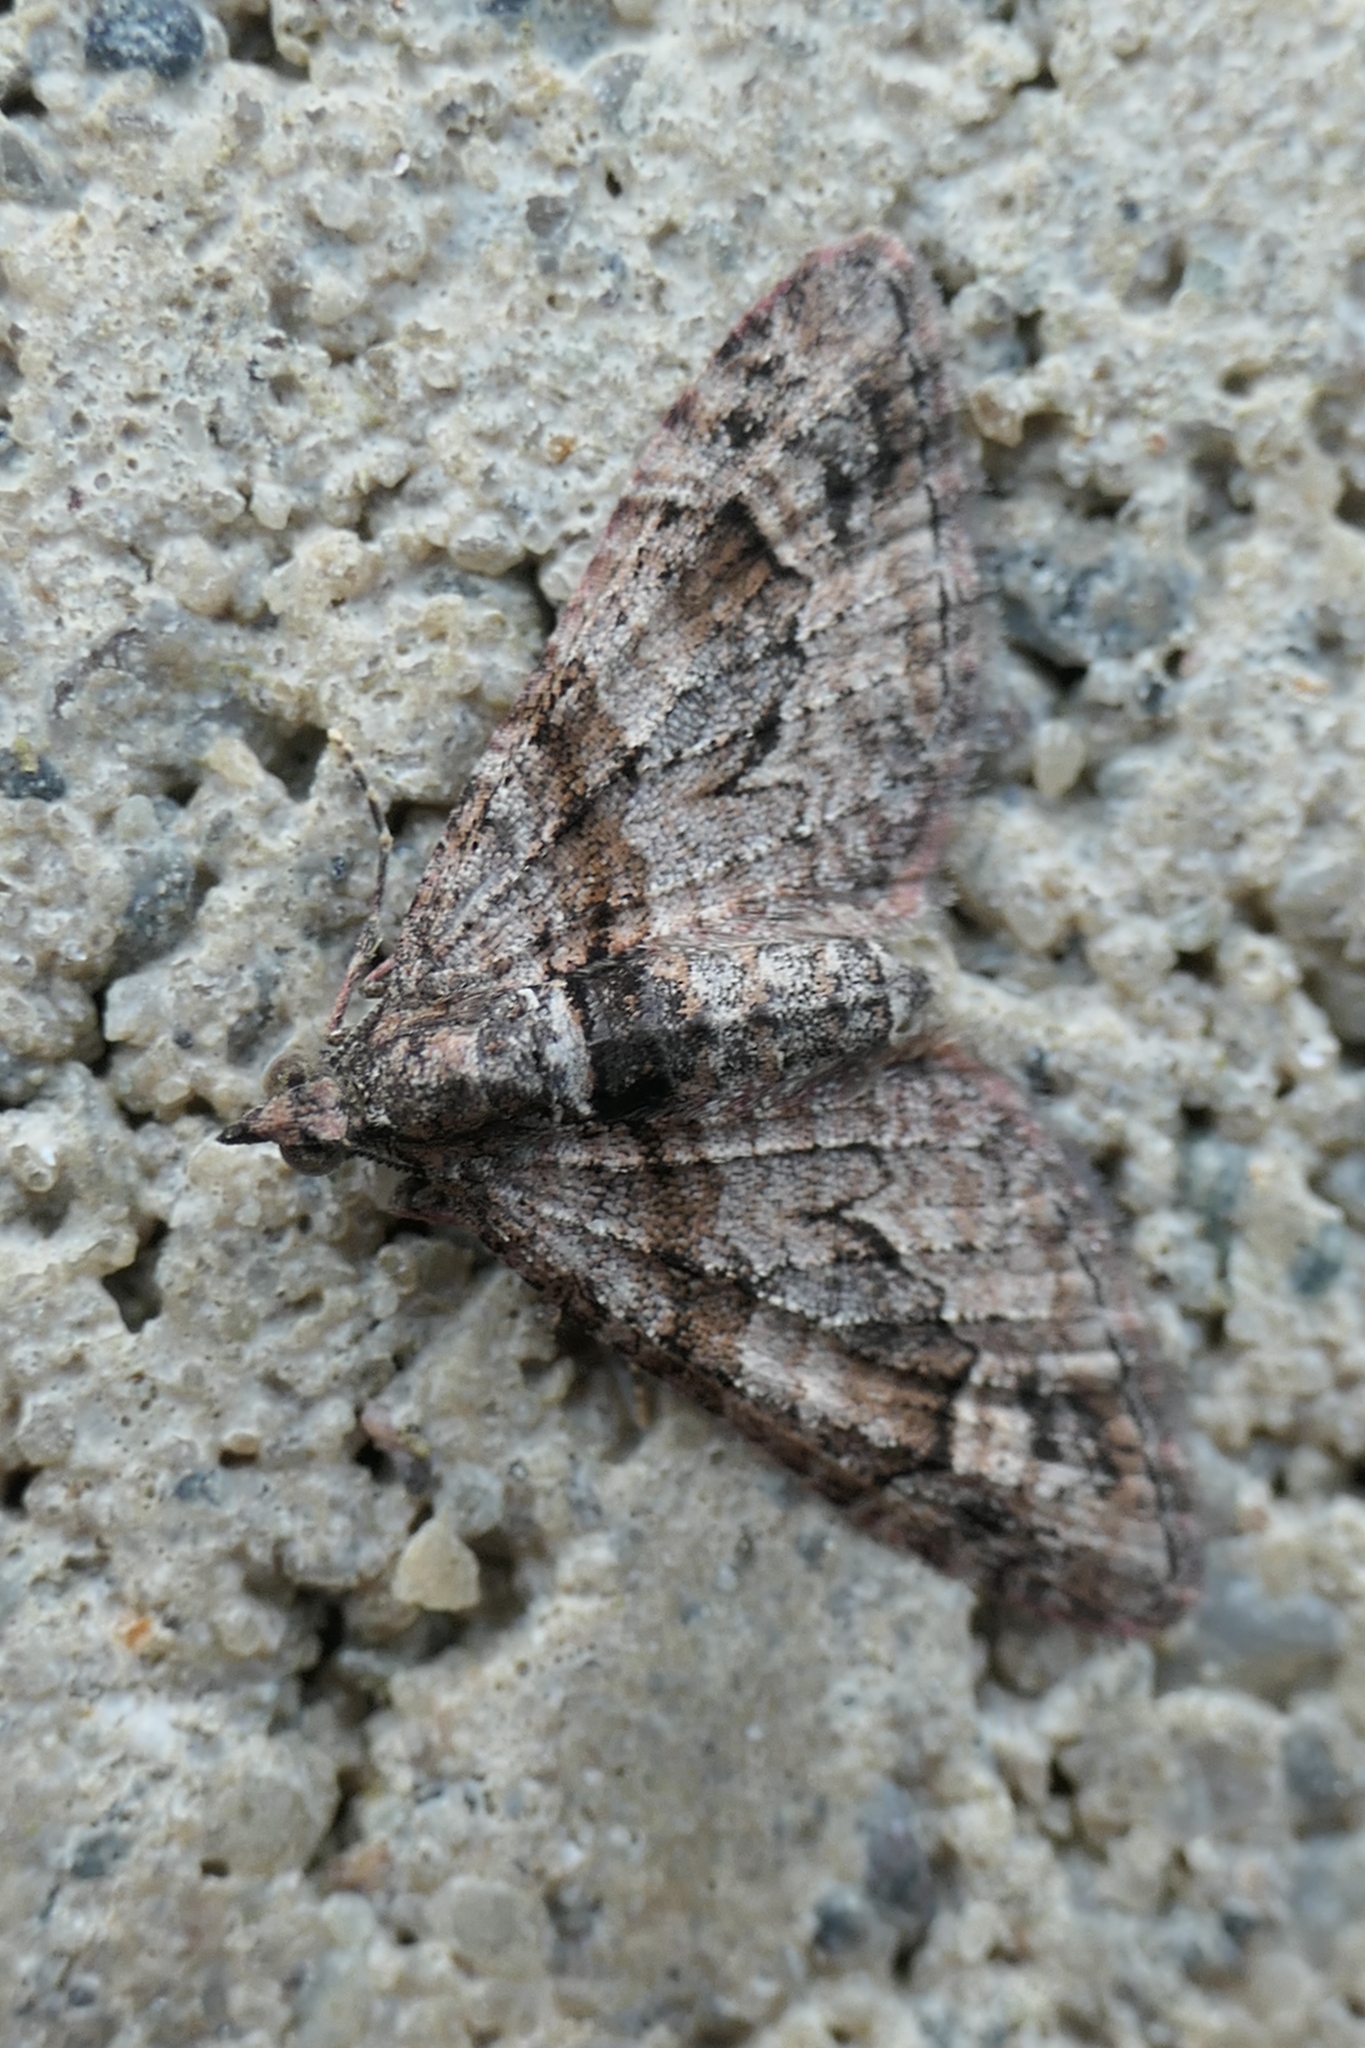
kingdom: Animalia
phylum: Arthropoda
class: Insecta
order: Lepidoptera
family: Geometridae
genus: Phrissogonus
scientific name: Phrissogonus laticostata
